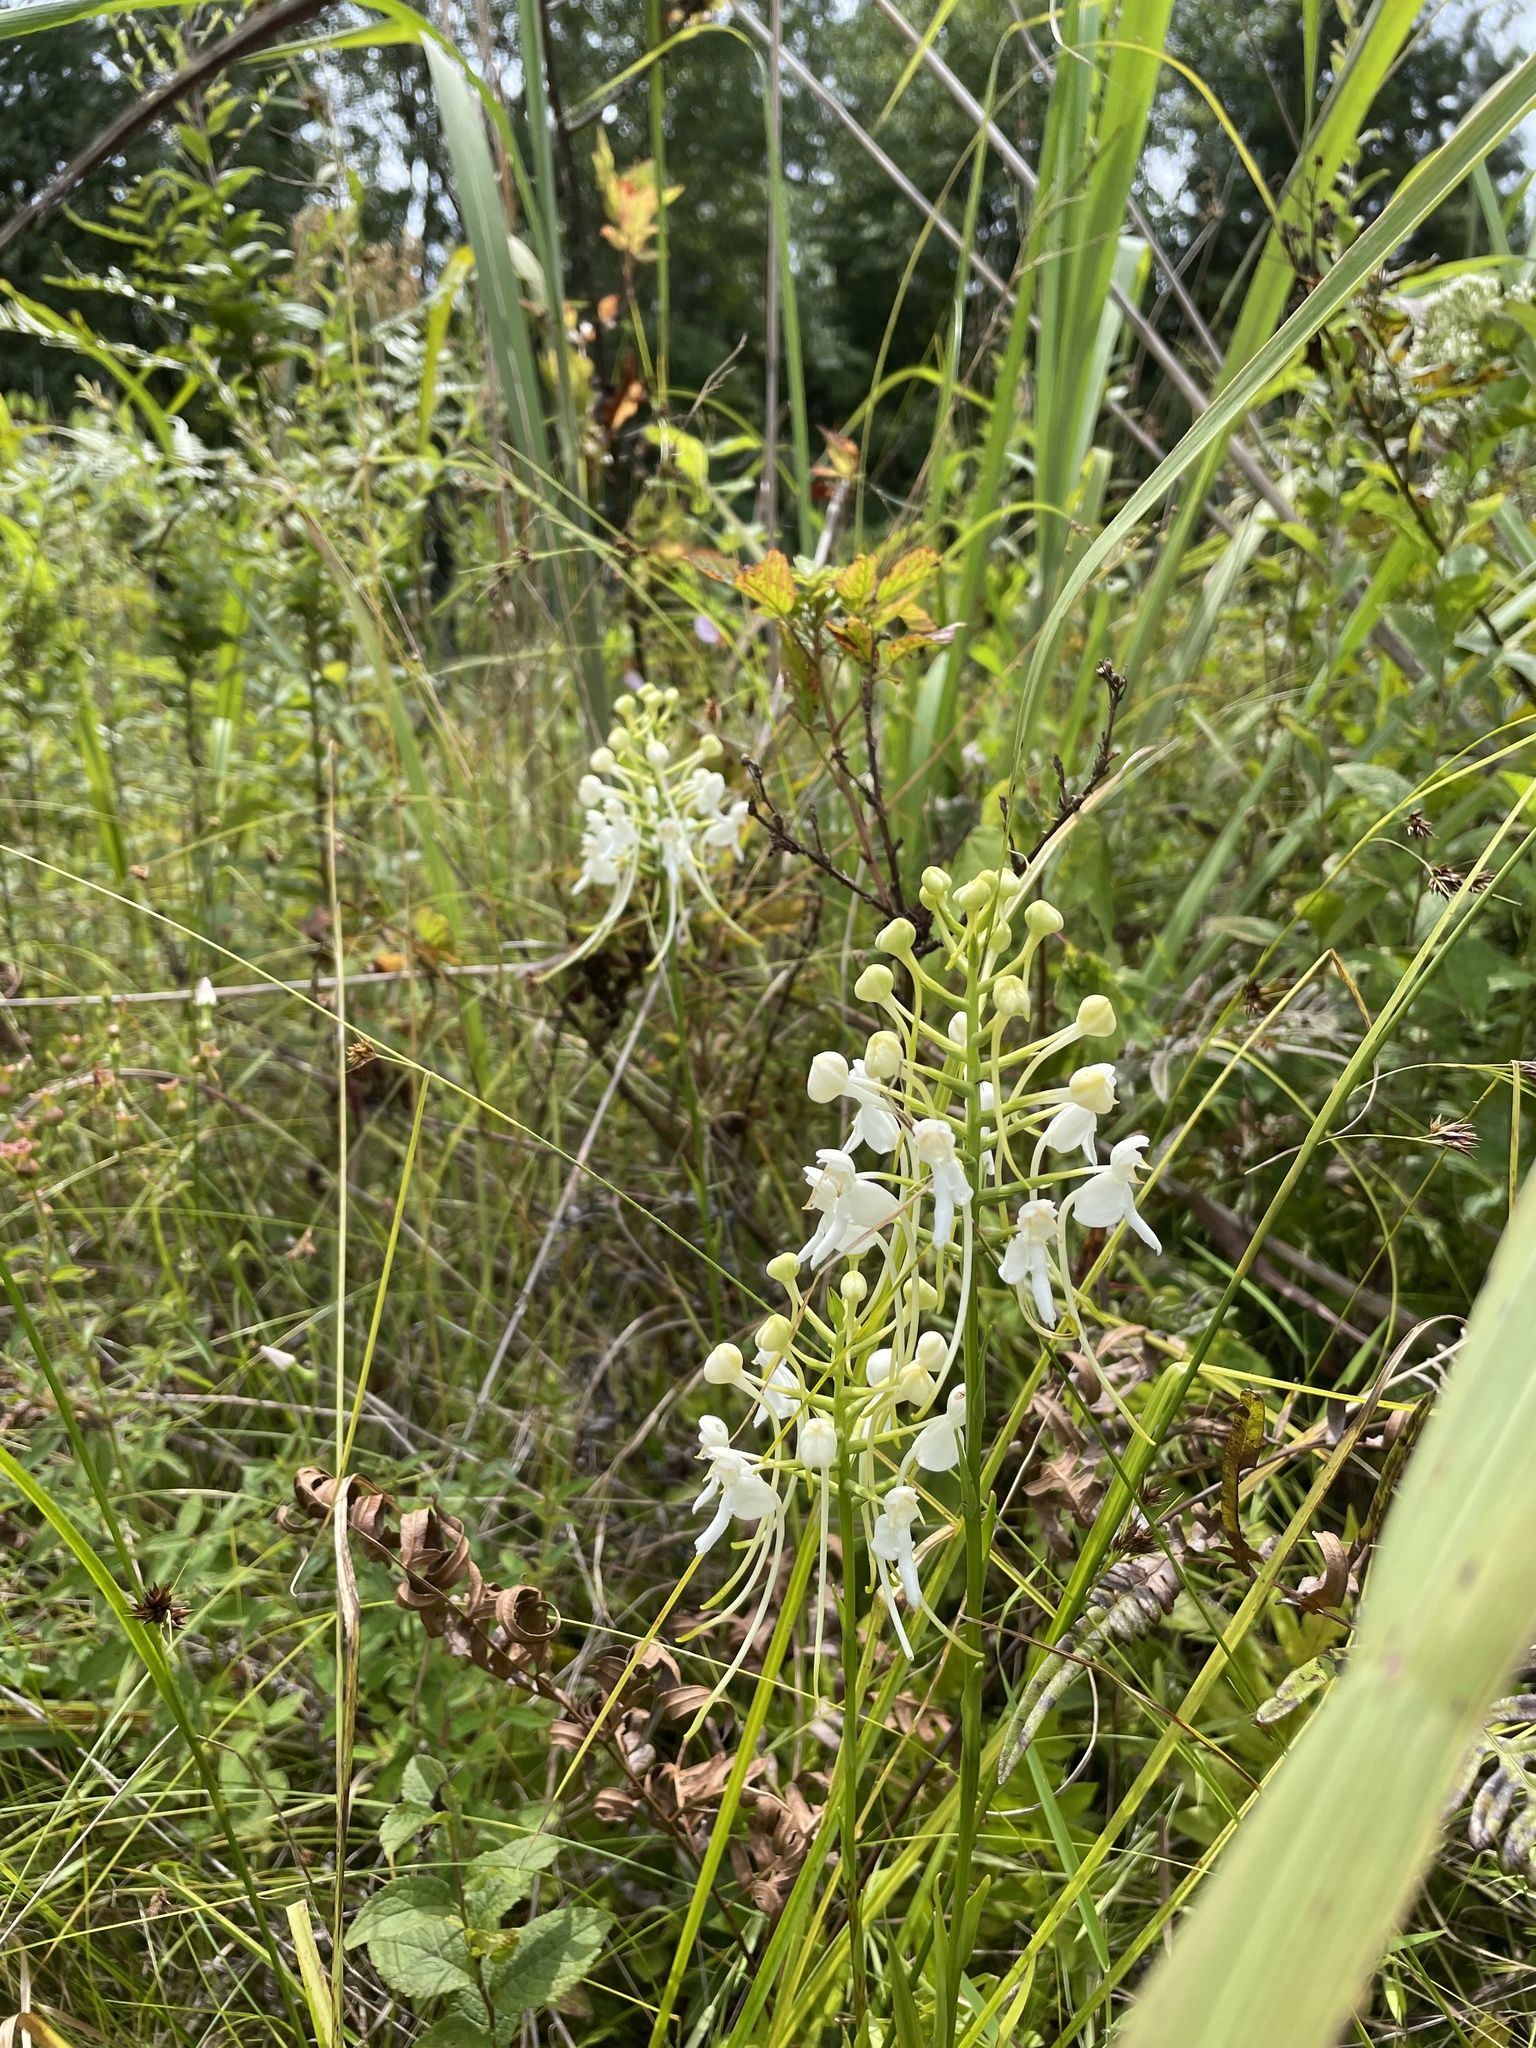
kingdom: Plantae
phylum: Tracheophyta
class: Liliopsida
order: Asparagales
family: Orchidaceae
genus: Platanthera
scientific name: Platanthera integrilabia
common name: White fringeless orchid
